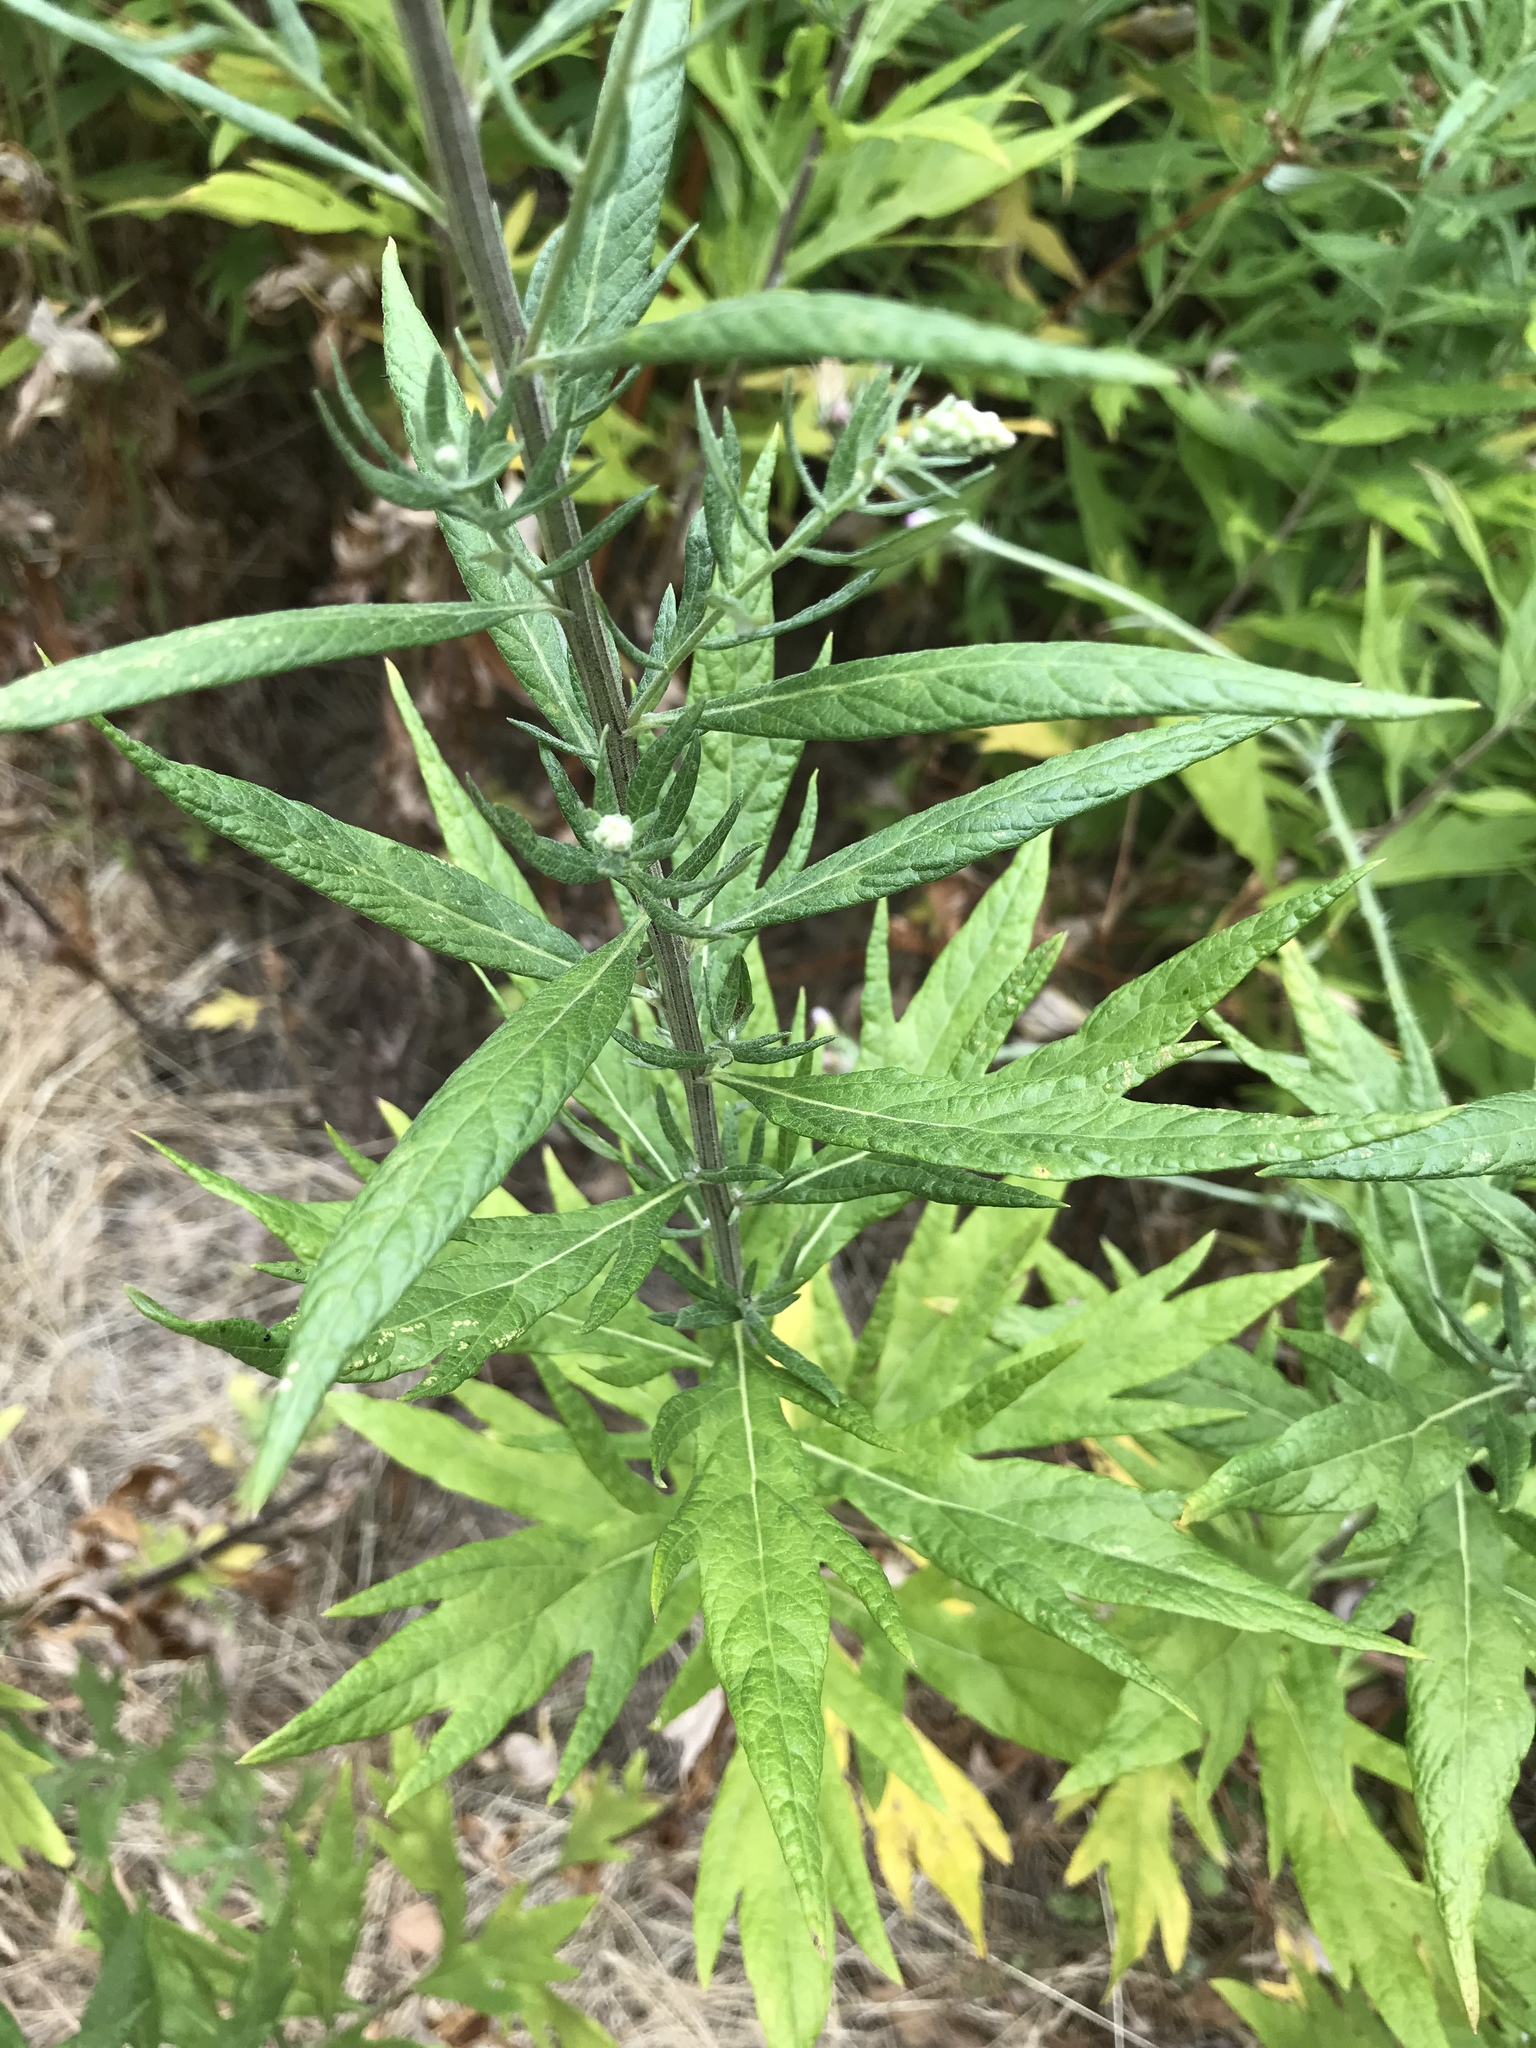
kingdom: Plantae
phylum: Tracheophyta
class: Magnoliopsida
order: Asterales
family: Asteraceae
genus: Artemisia
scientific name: Artemisia douglasiana
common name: Northwest mugwort
